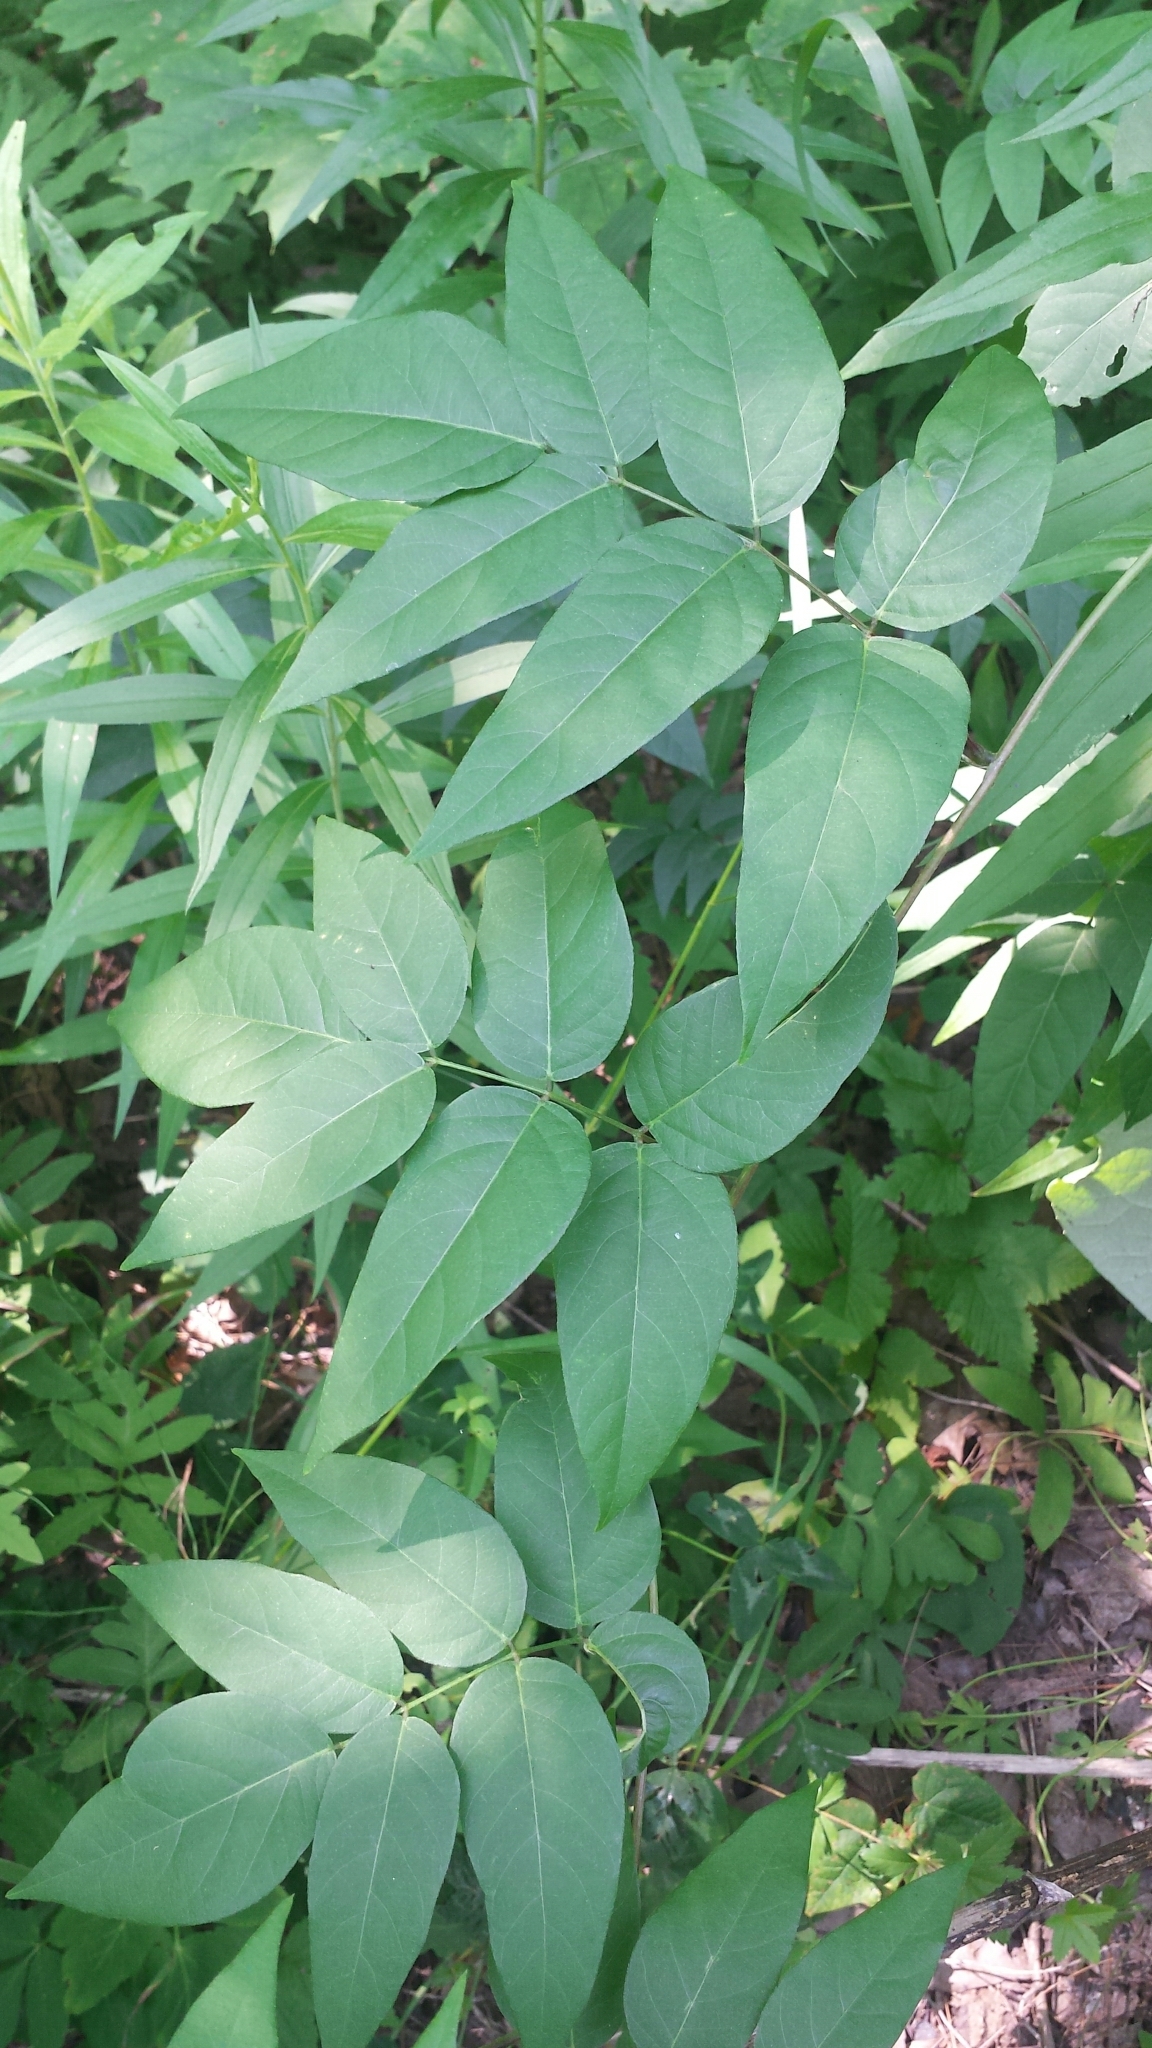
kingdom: Plantae
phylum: Tracheophyta
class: Magnoliopsida
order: Fabales
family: Fabaceae
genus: Apios
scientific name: Apios americana
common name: American potato-bean
